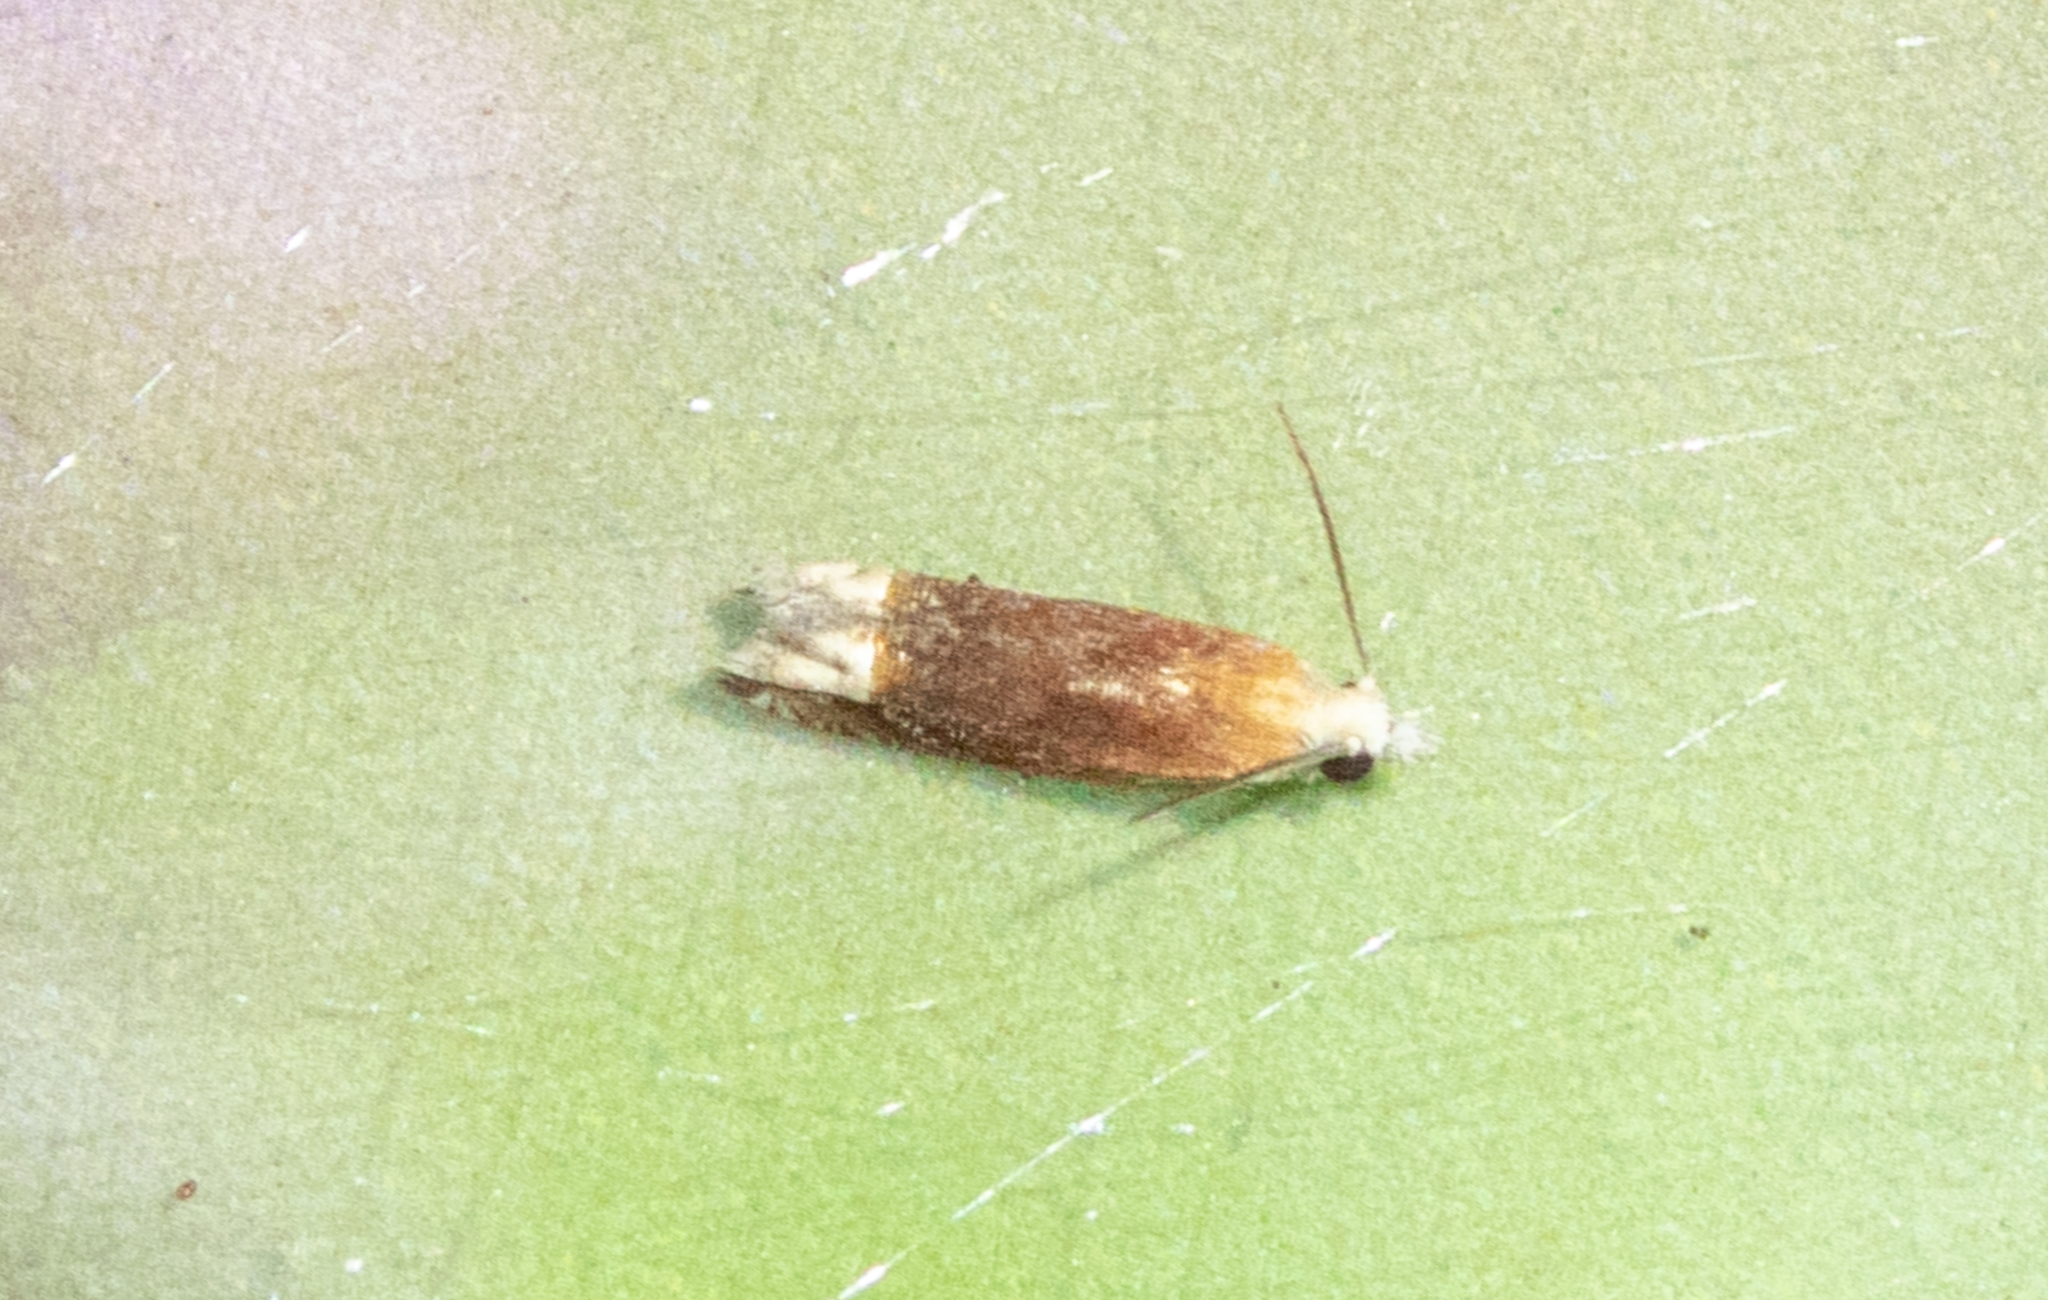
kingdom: Animalia
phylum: Arthropoda
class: Insecta
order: Lepidoptera
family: Tortricidae
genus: Eucosma
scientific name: Eucosma raracana
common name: Reddish eucosma moth
